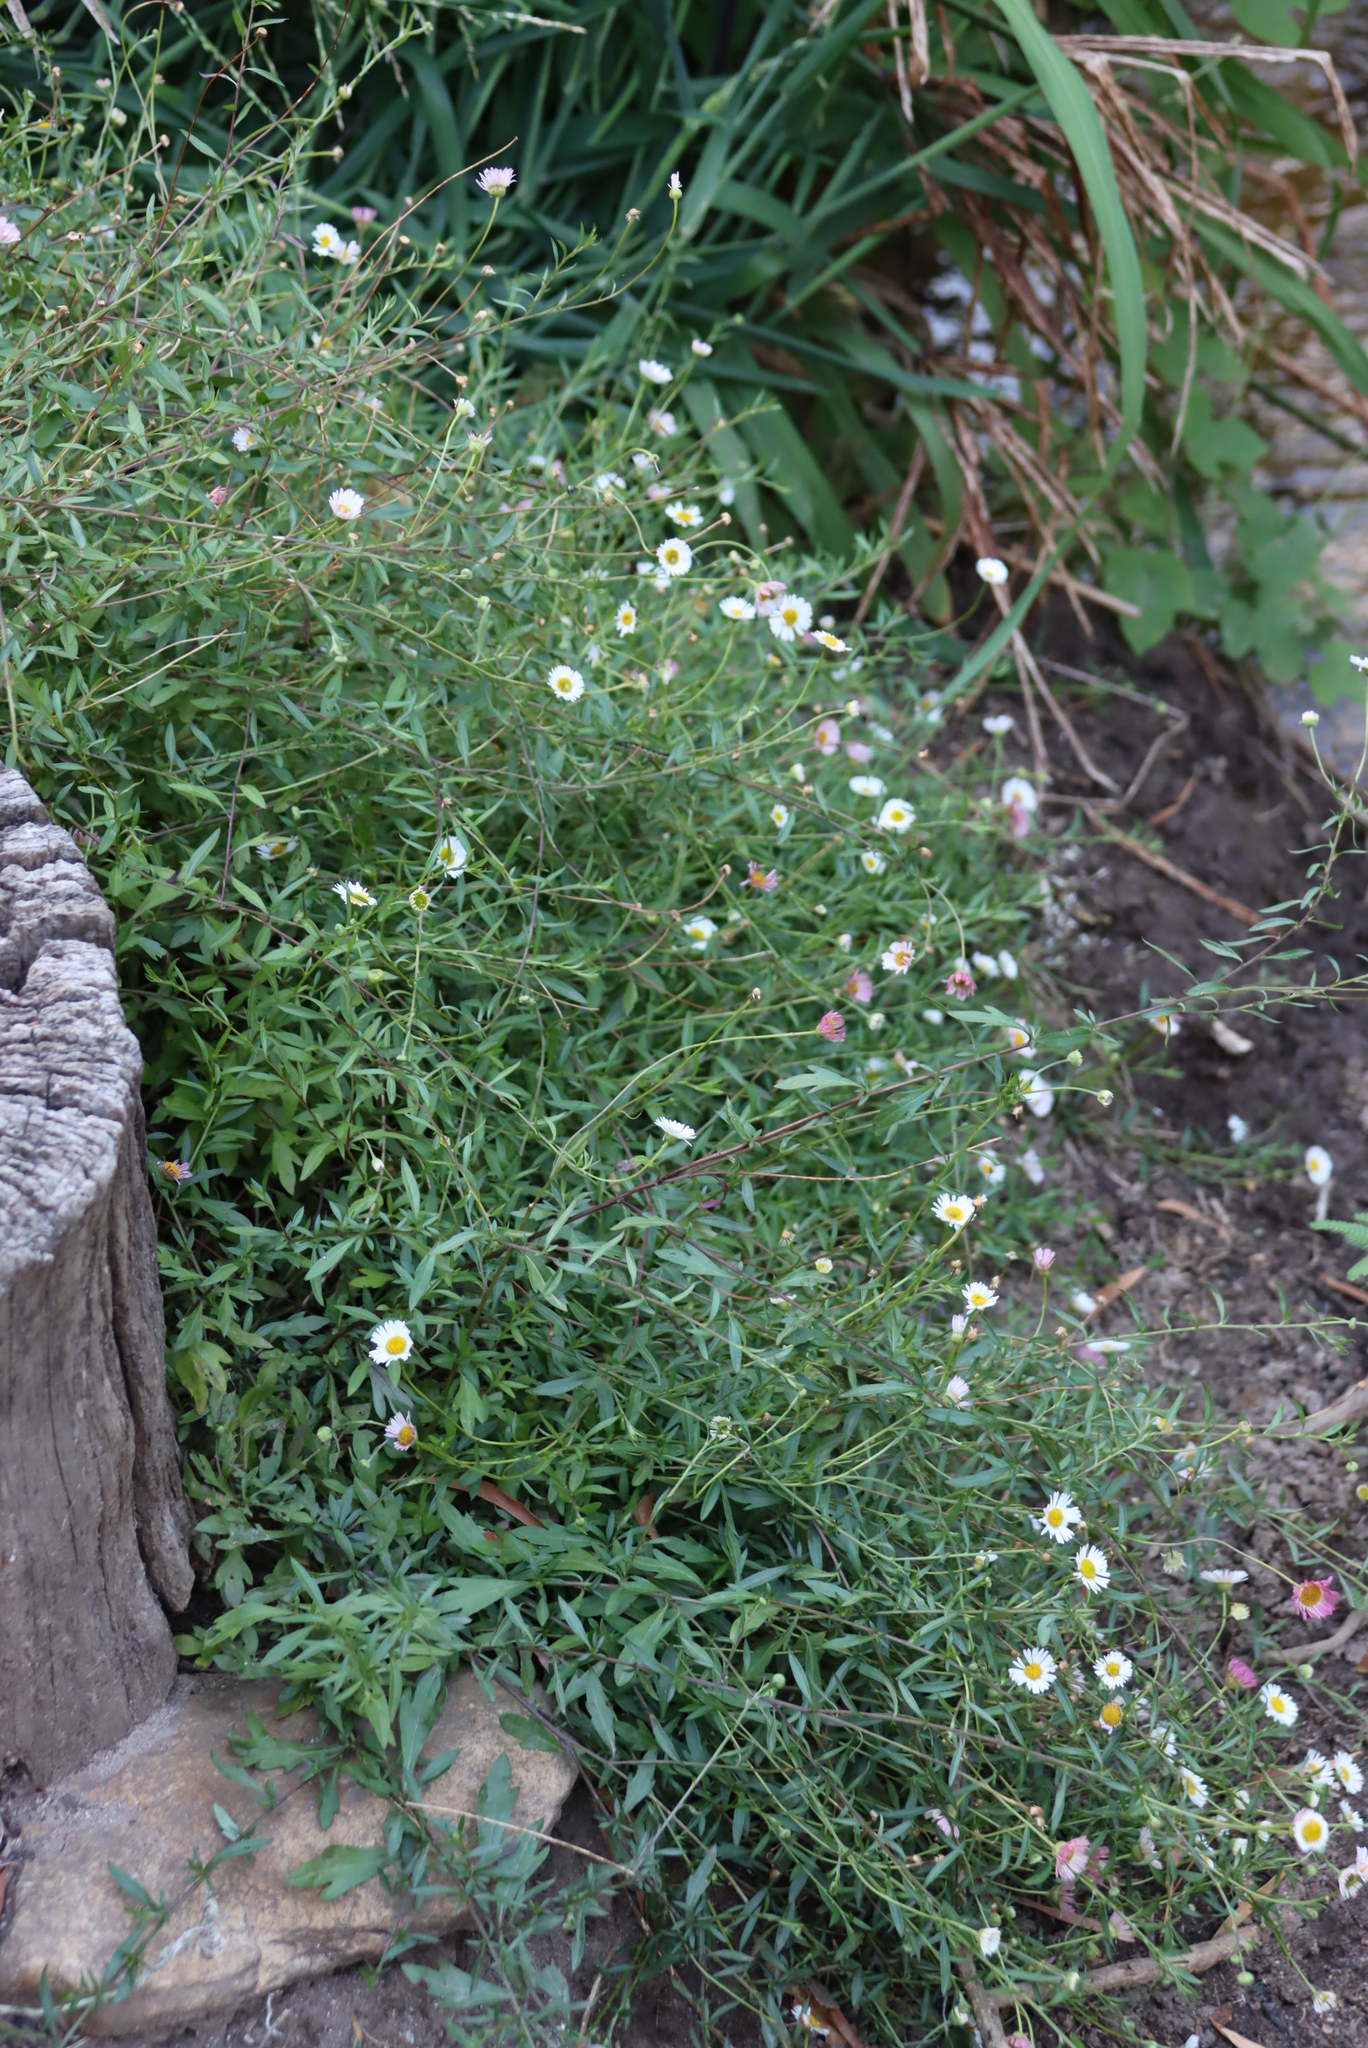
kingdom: Plantae
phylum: Tracheophyta
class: Magnoliopsida
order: Asterales
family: Asteraceae
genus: Erigeron
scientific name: Erigeron karvinskianus
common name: Mexican fleabane
